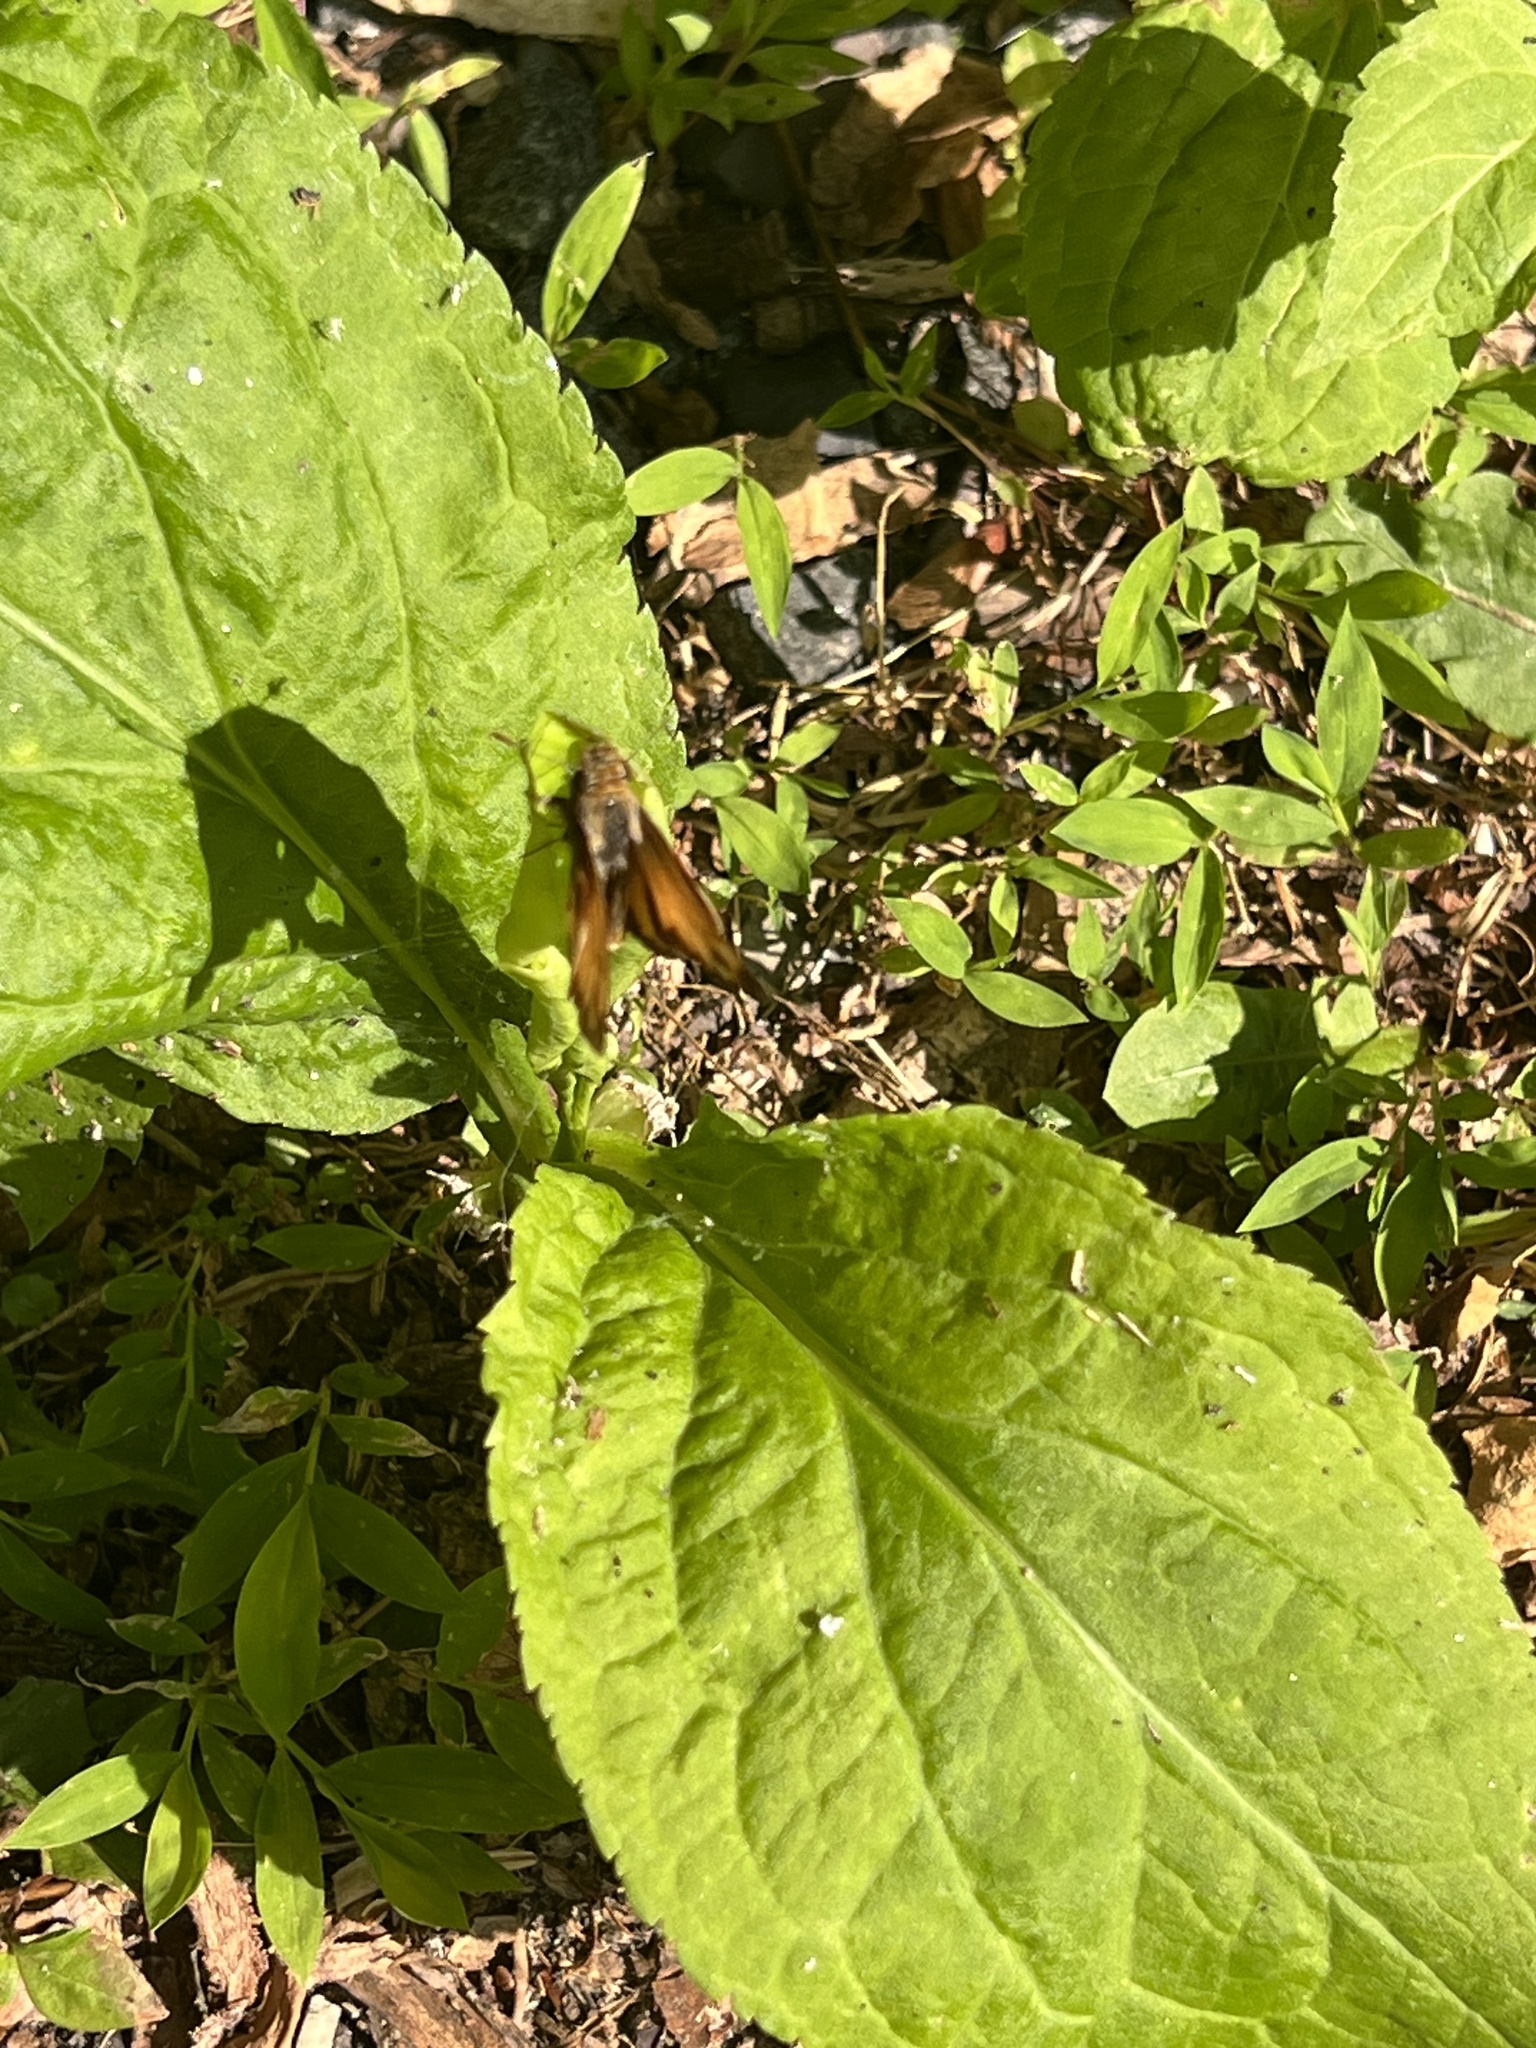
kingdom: Animalia
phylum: Arthropoda
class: Insecta
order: Lepidoptera
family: Hesperiidae
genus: Lon
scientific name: Lon zabulon
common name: Zabulon skipper
